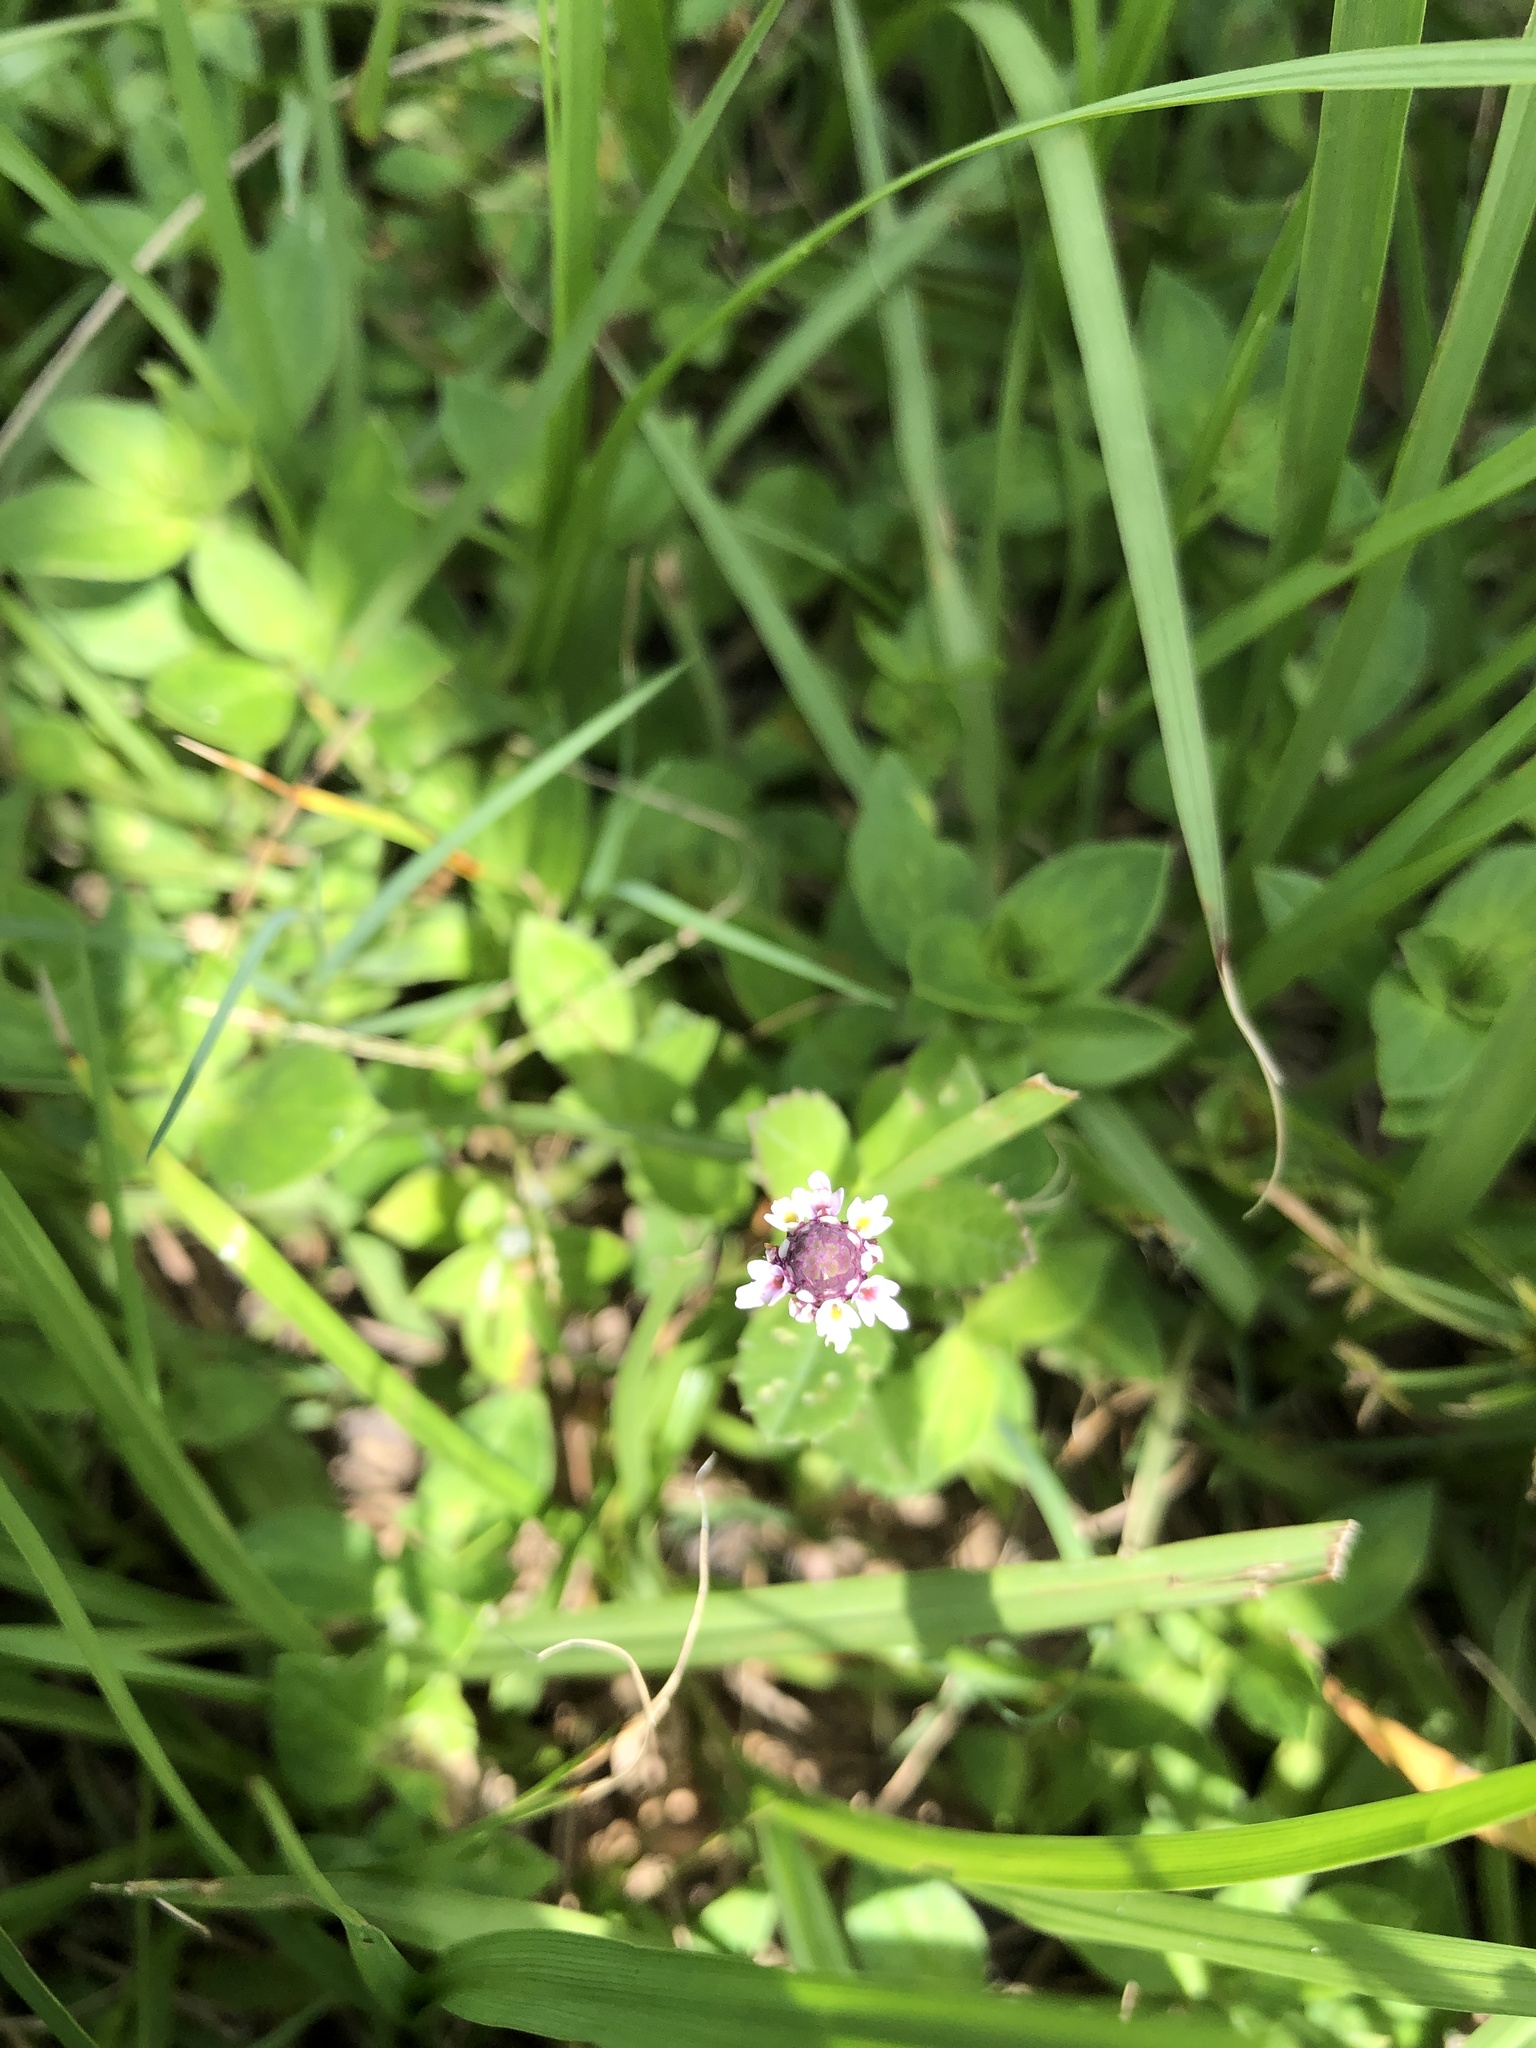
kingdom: Plantae
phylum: Tracheophyta
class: Magnoliopsida
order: Lamiales
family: Verbenaceae
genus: Phyla
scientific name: Phyla nodiflora
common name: Frogfruit
